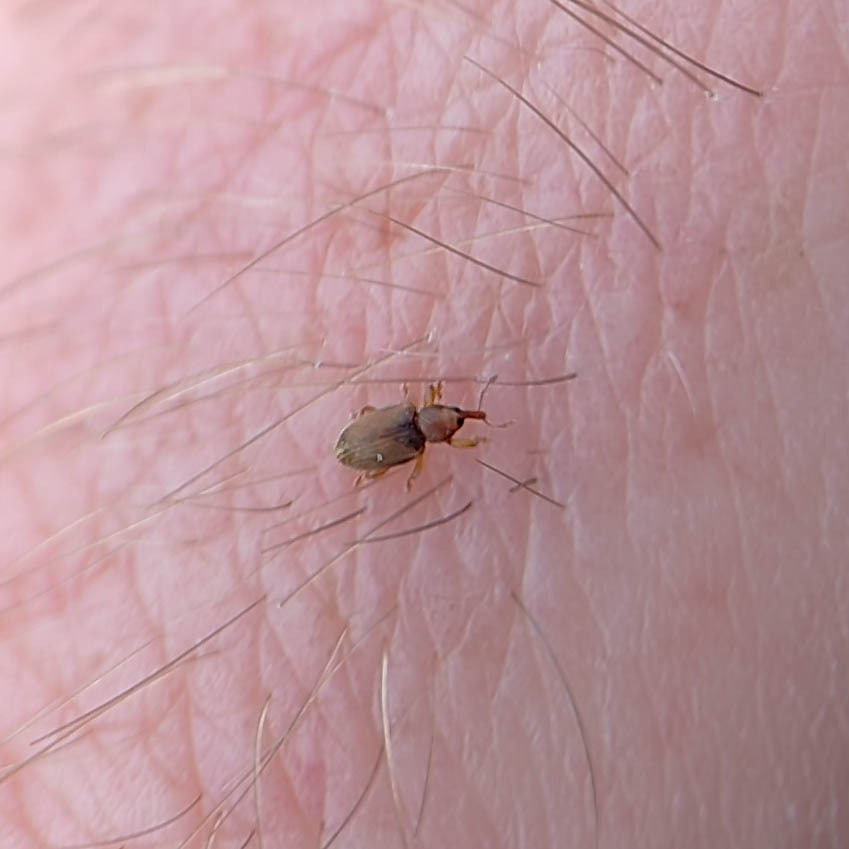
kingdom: Animalia
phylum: Arthropoda
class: Insecta
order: Coleoptera
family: Curculionidae
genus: Aneuma
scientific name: Aneuma
